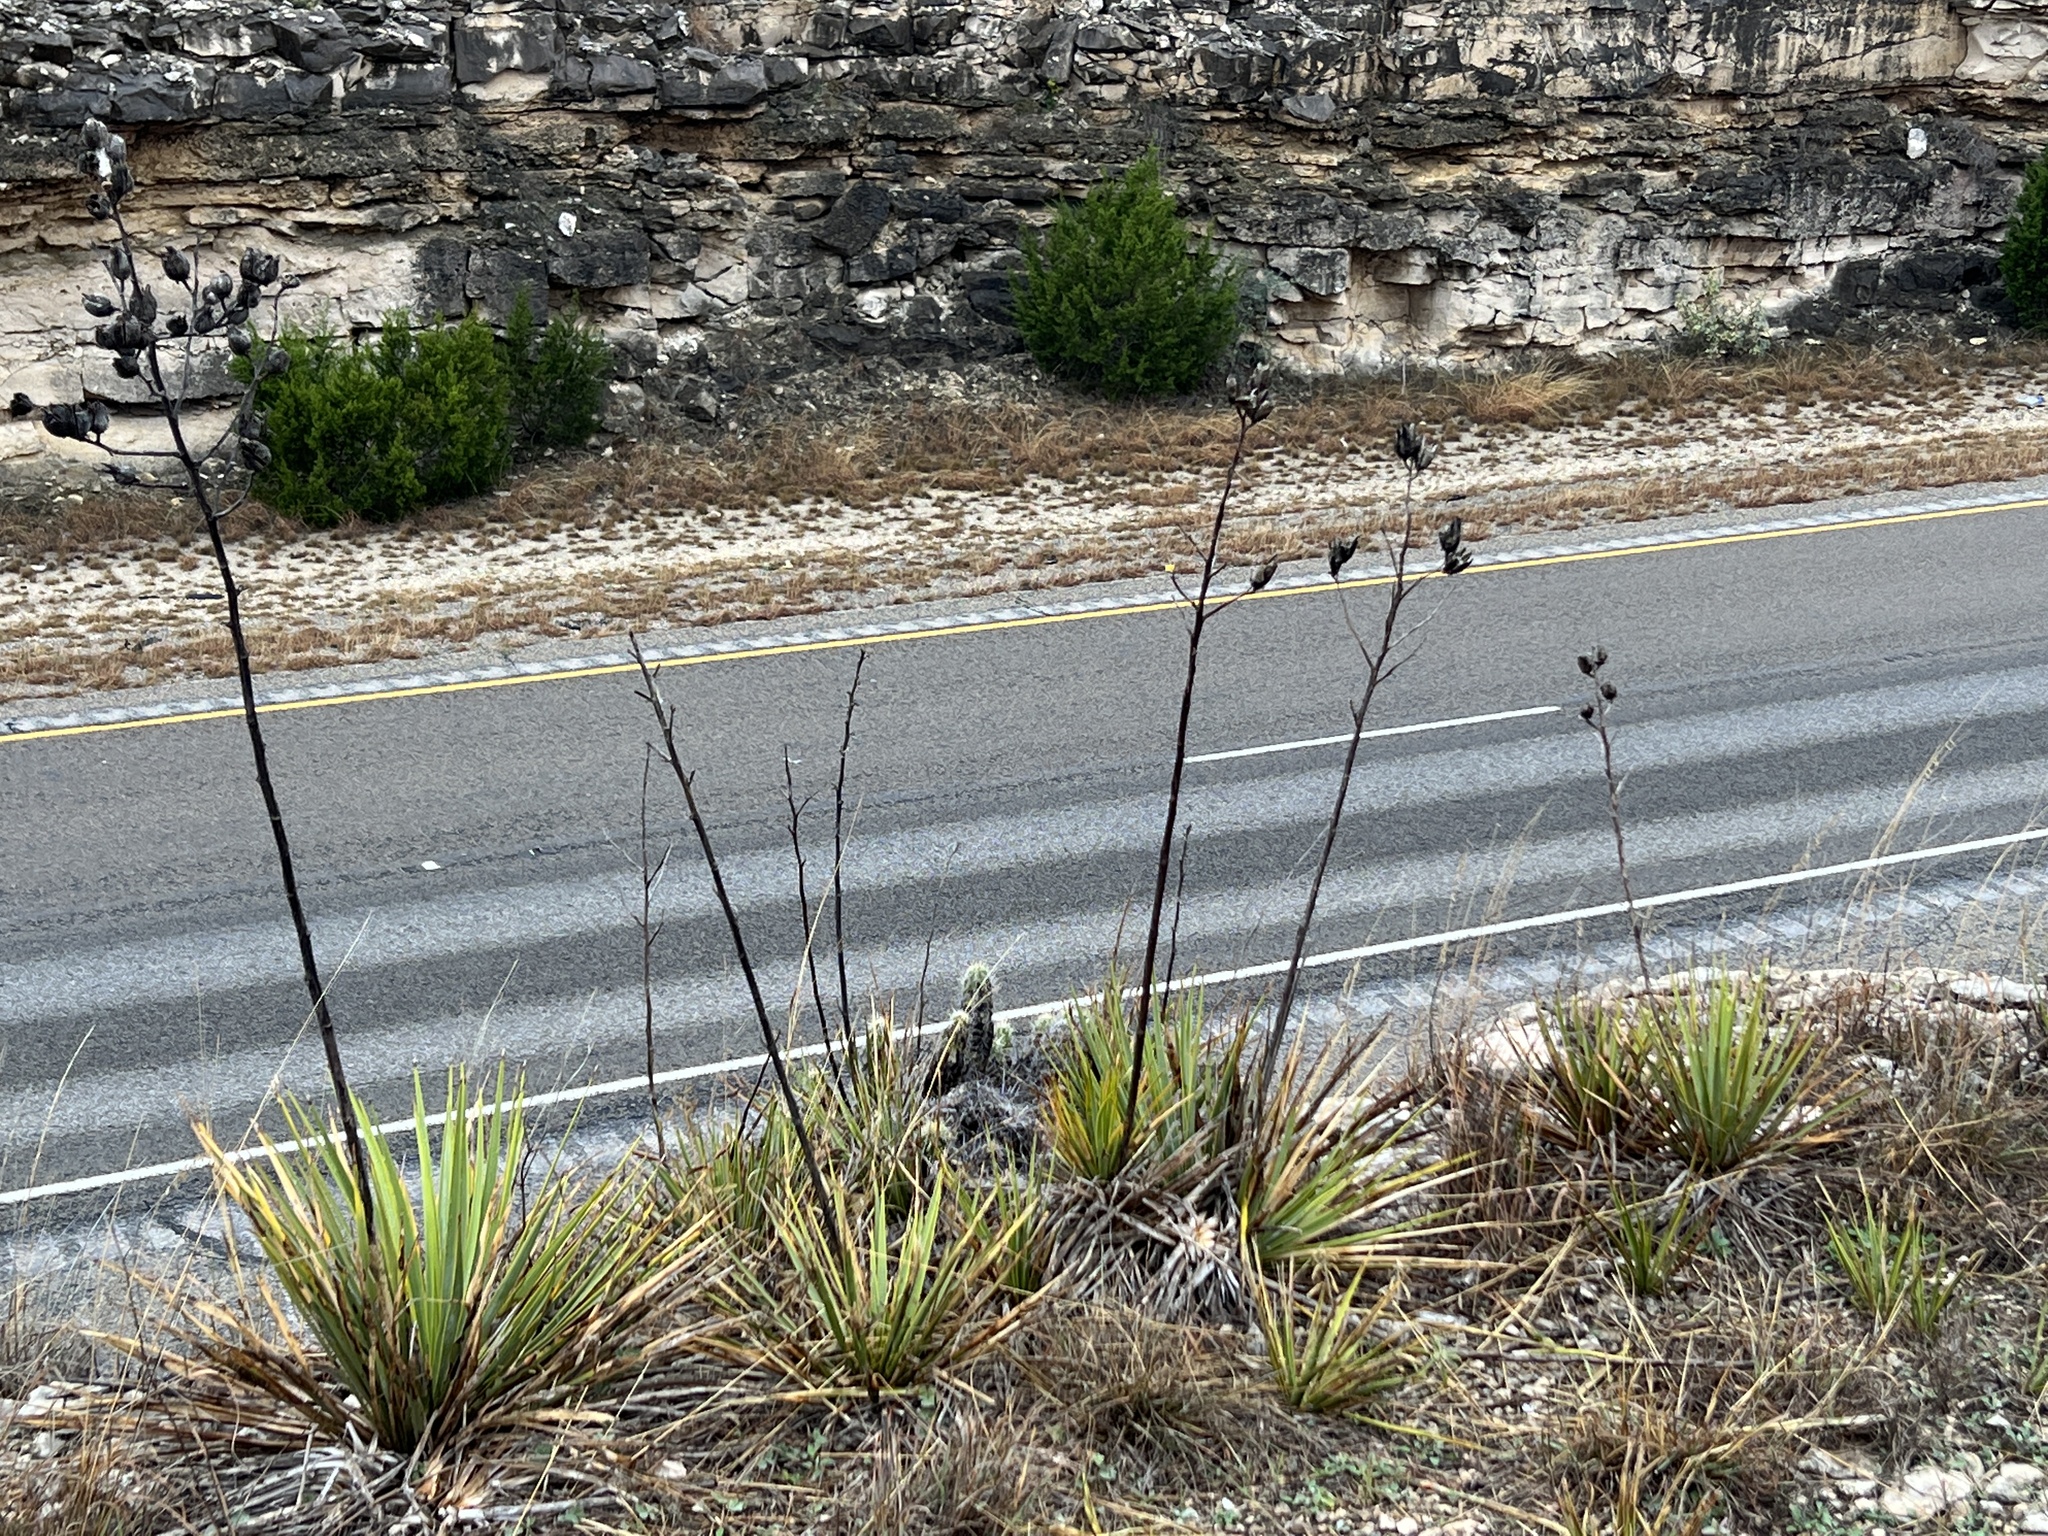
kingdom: Plantae
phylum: Tracheophyta
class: Liliopsida
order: Asparagales
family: Asparagaceae
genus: Yucca
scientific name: Yucca reverchonii
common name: San angelo yucca
